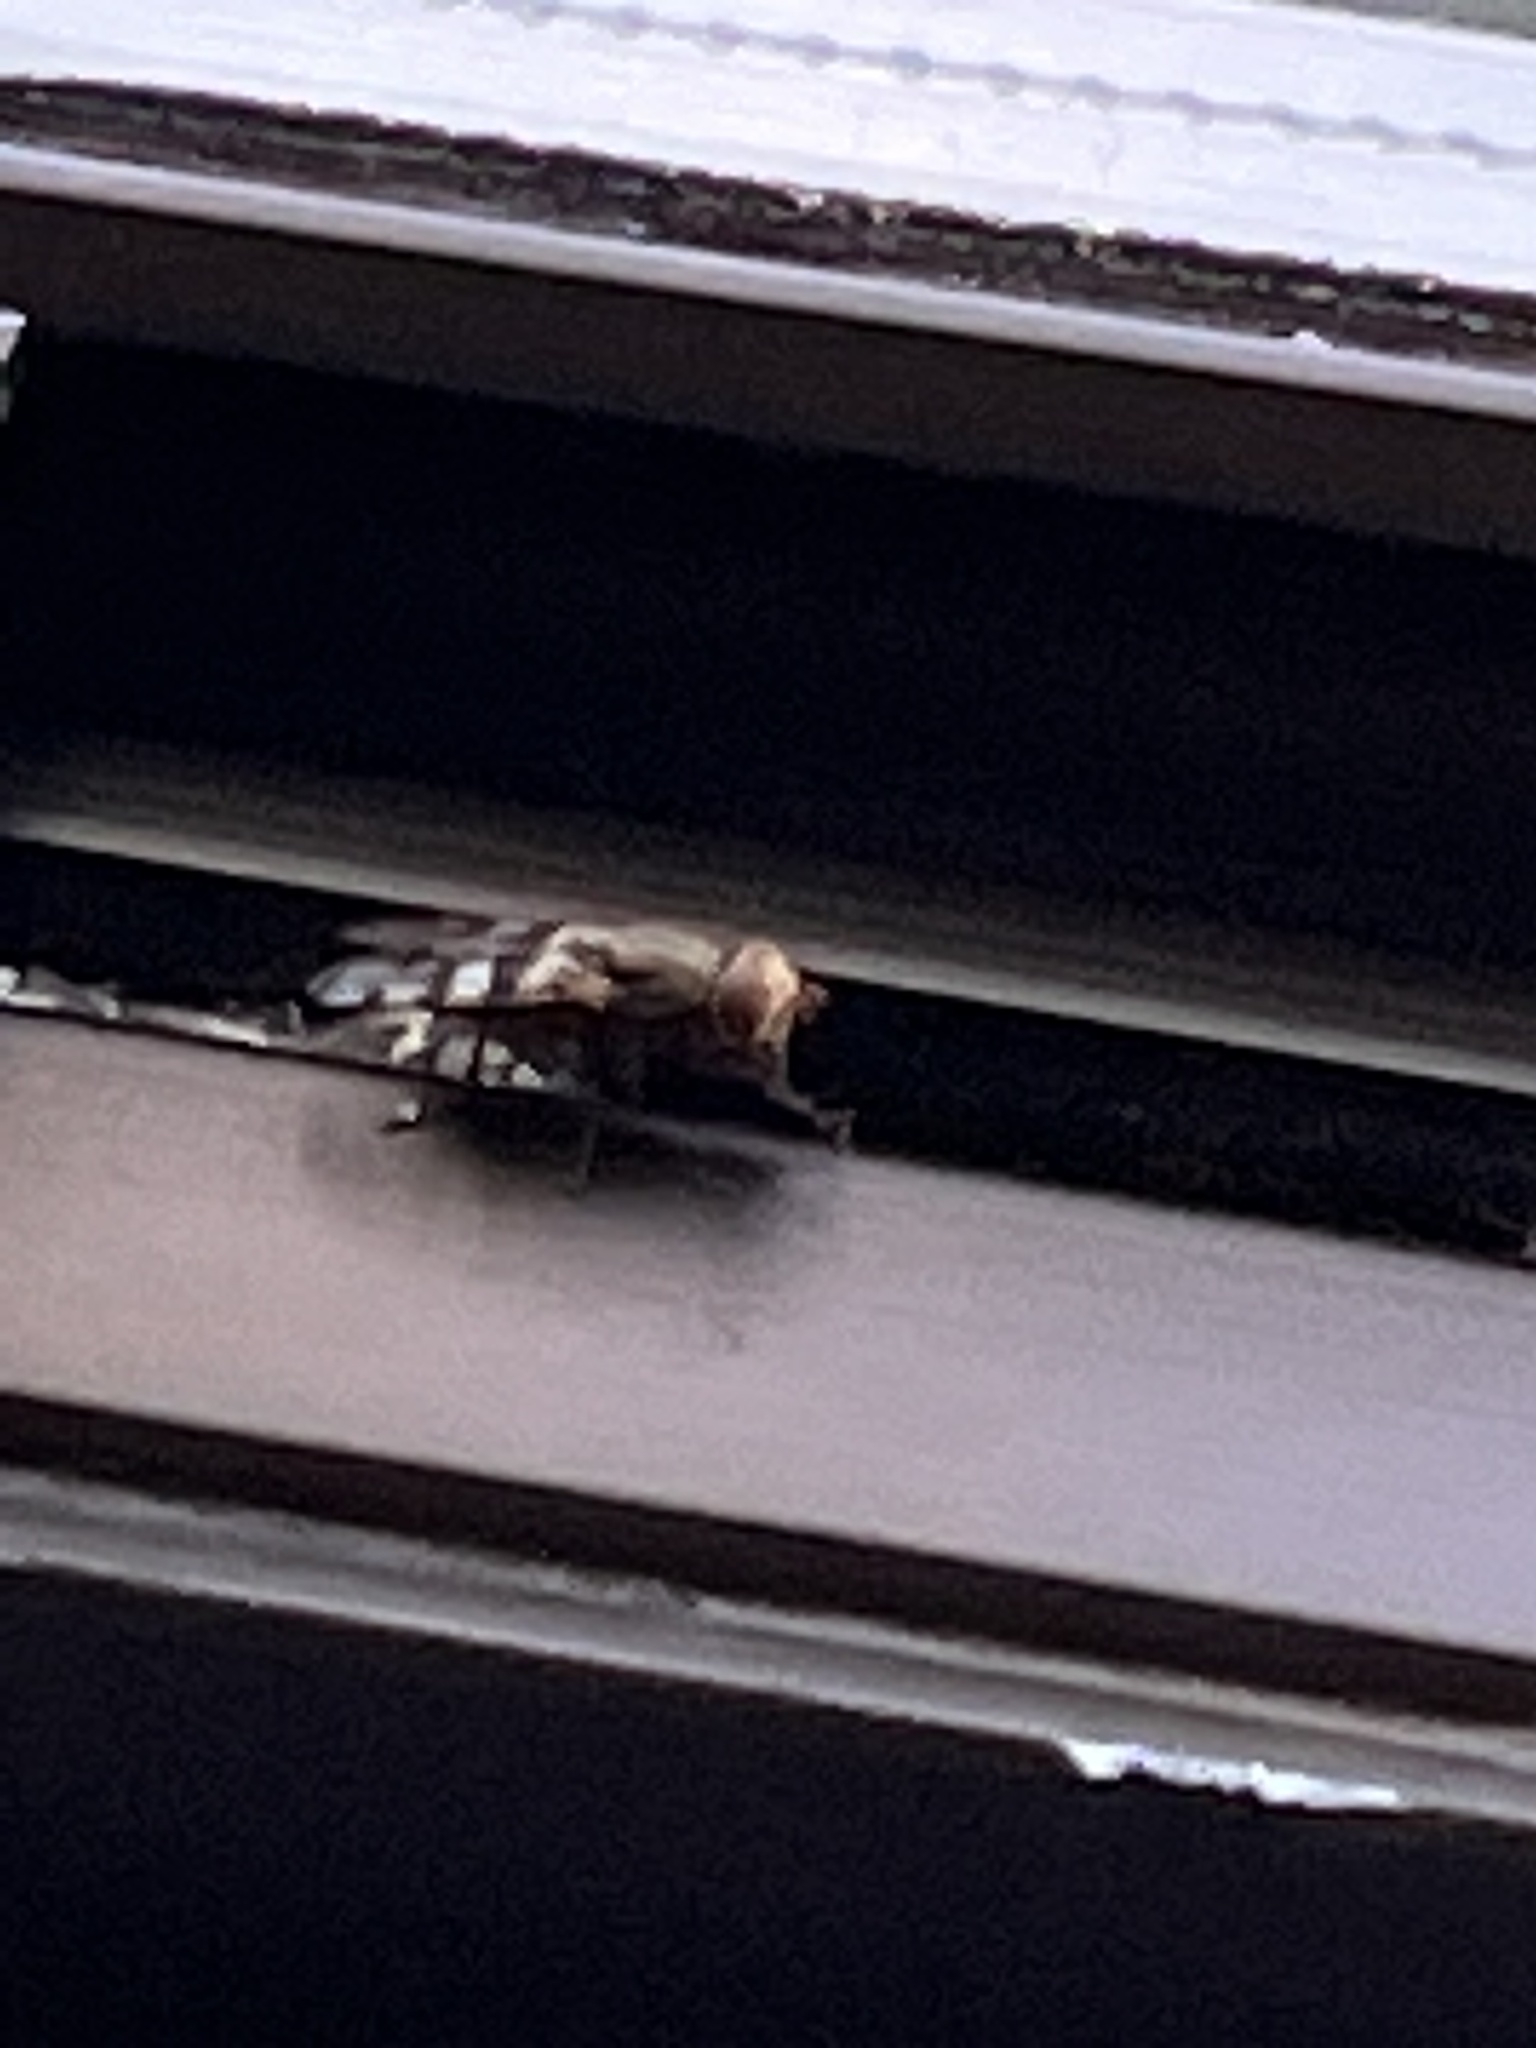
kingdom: Animalia
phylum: Arthropoda
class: Insecta
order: Diptera
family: Ulidiidae
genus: Ceroxys
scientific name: Ceroxys latiusculus
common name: Picture-winged fly
